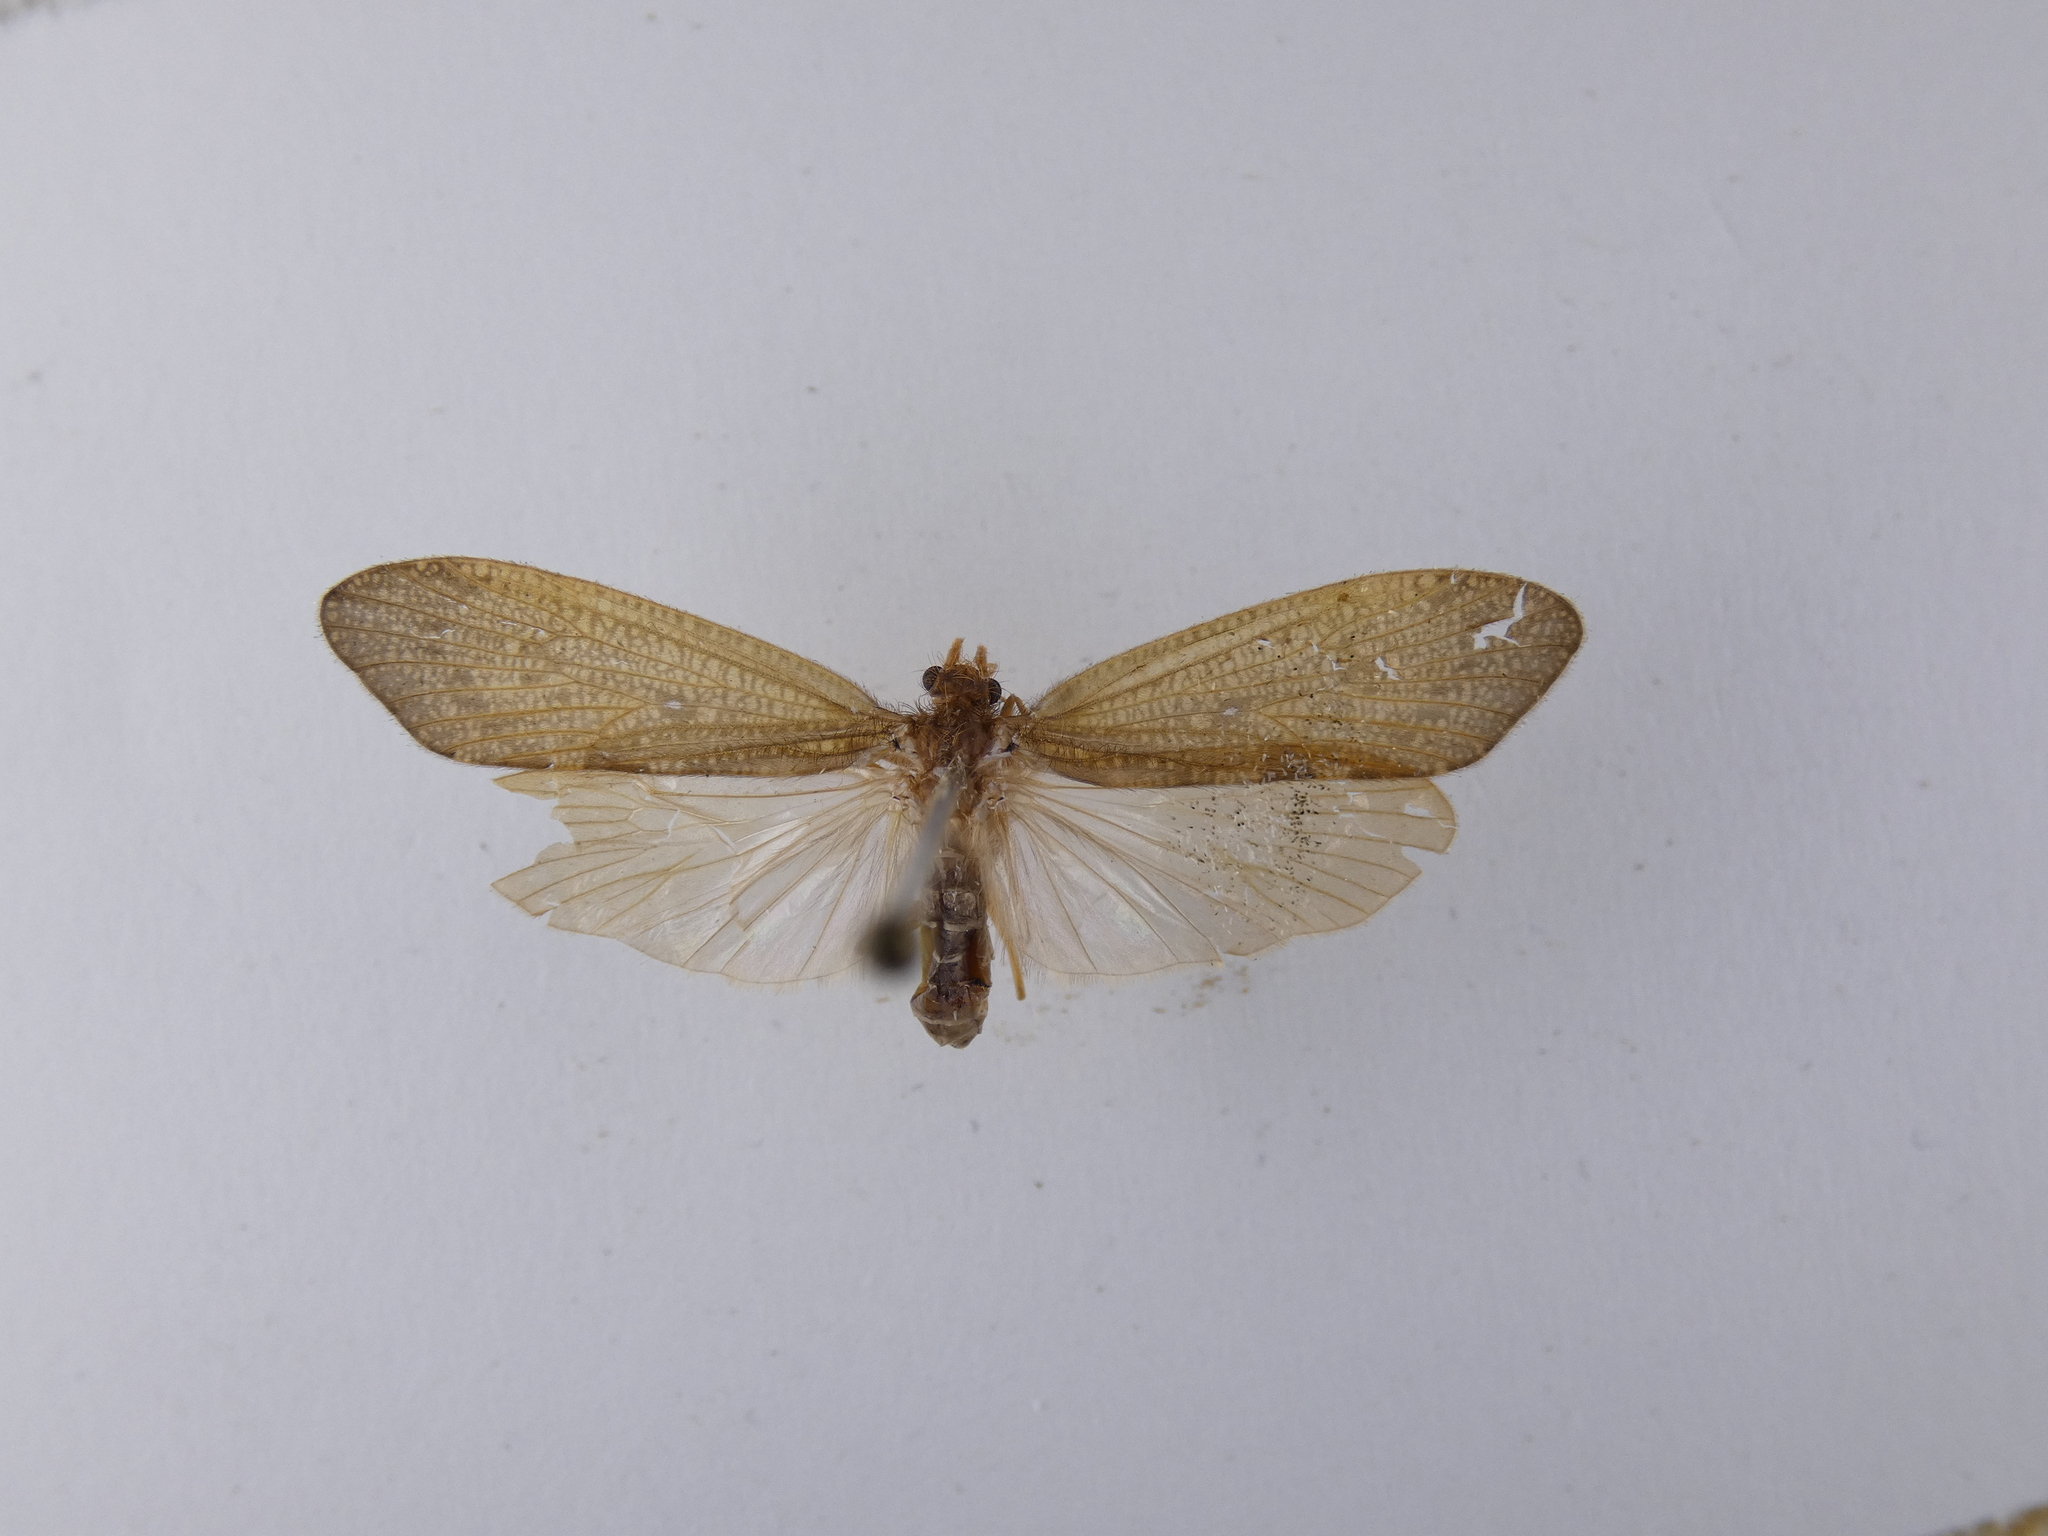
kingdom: Animalia
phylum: Arthropoda
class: Insecta
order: Trichoptera
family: Oeconesidae
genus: Oeconesus
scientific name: Oeconesus maori
